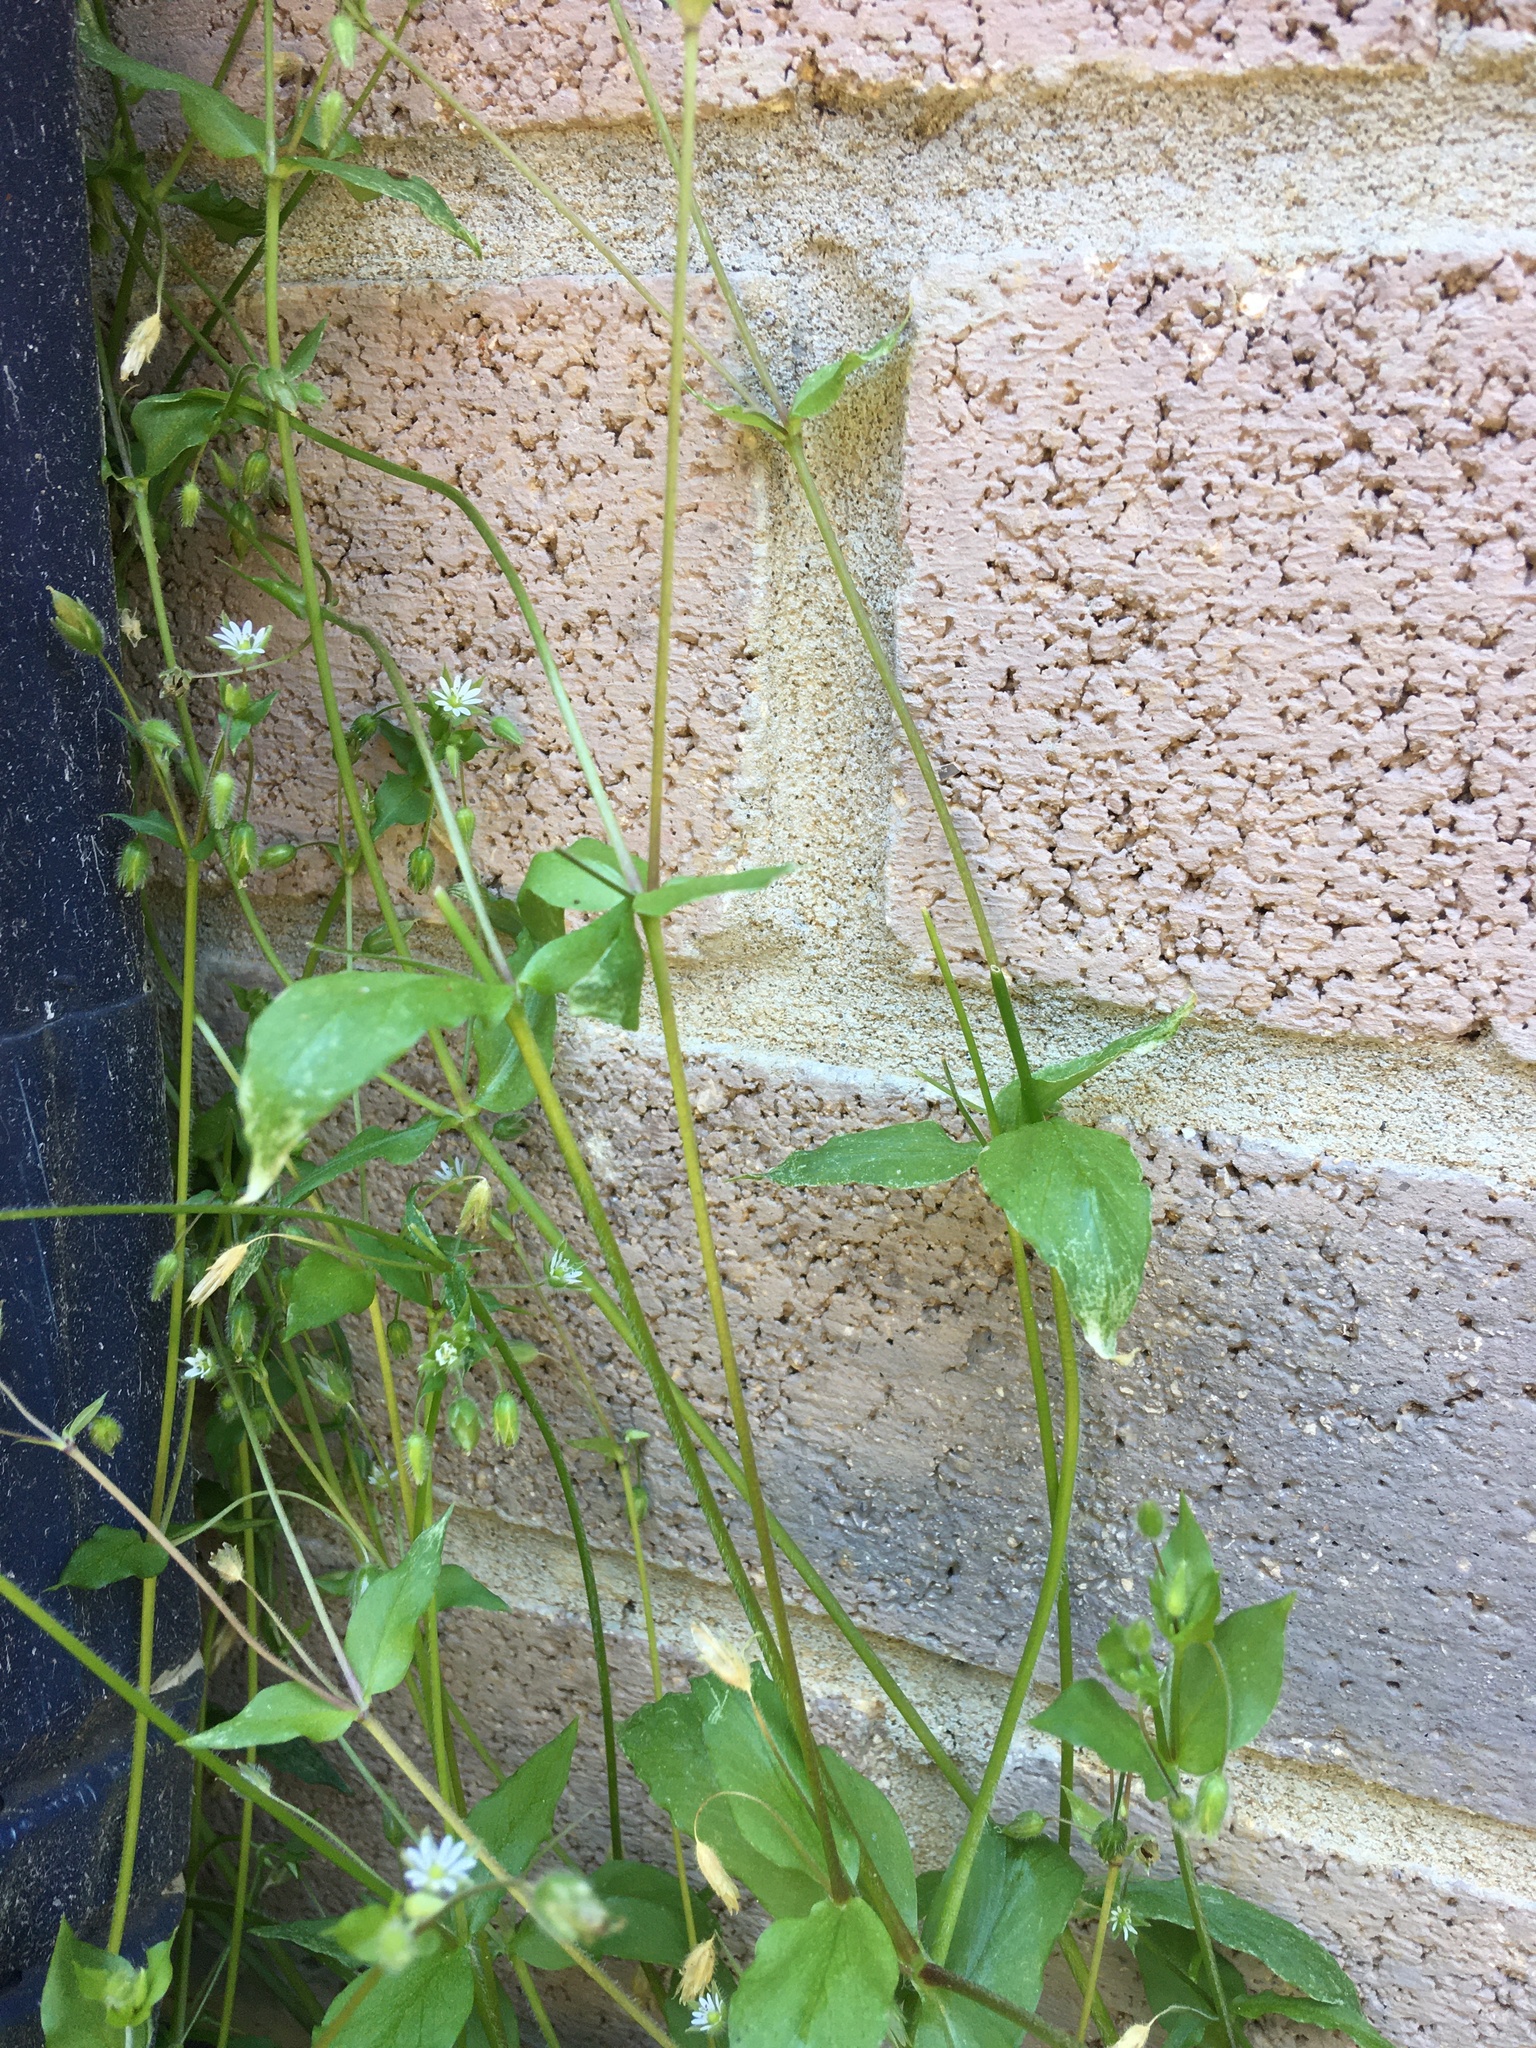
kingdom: Plantae
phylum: Tracheophyta
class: Magnoliopsida
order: Caryophyllales
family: Caryophyllaceae
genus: Stellaria
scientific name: Stellaria media
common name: Common chickweed
